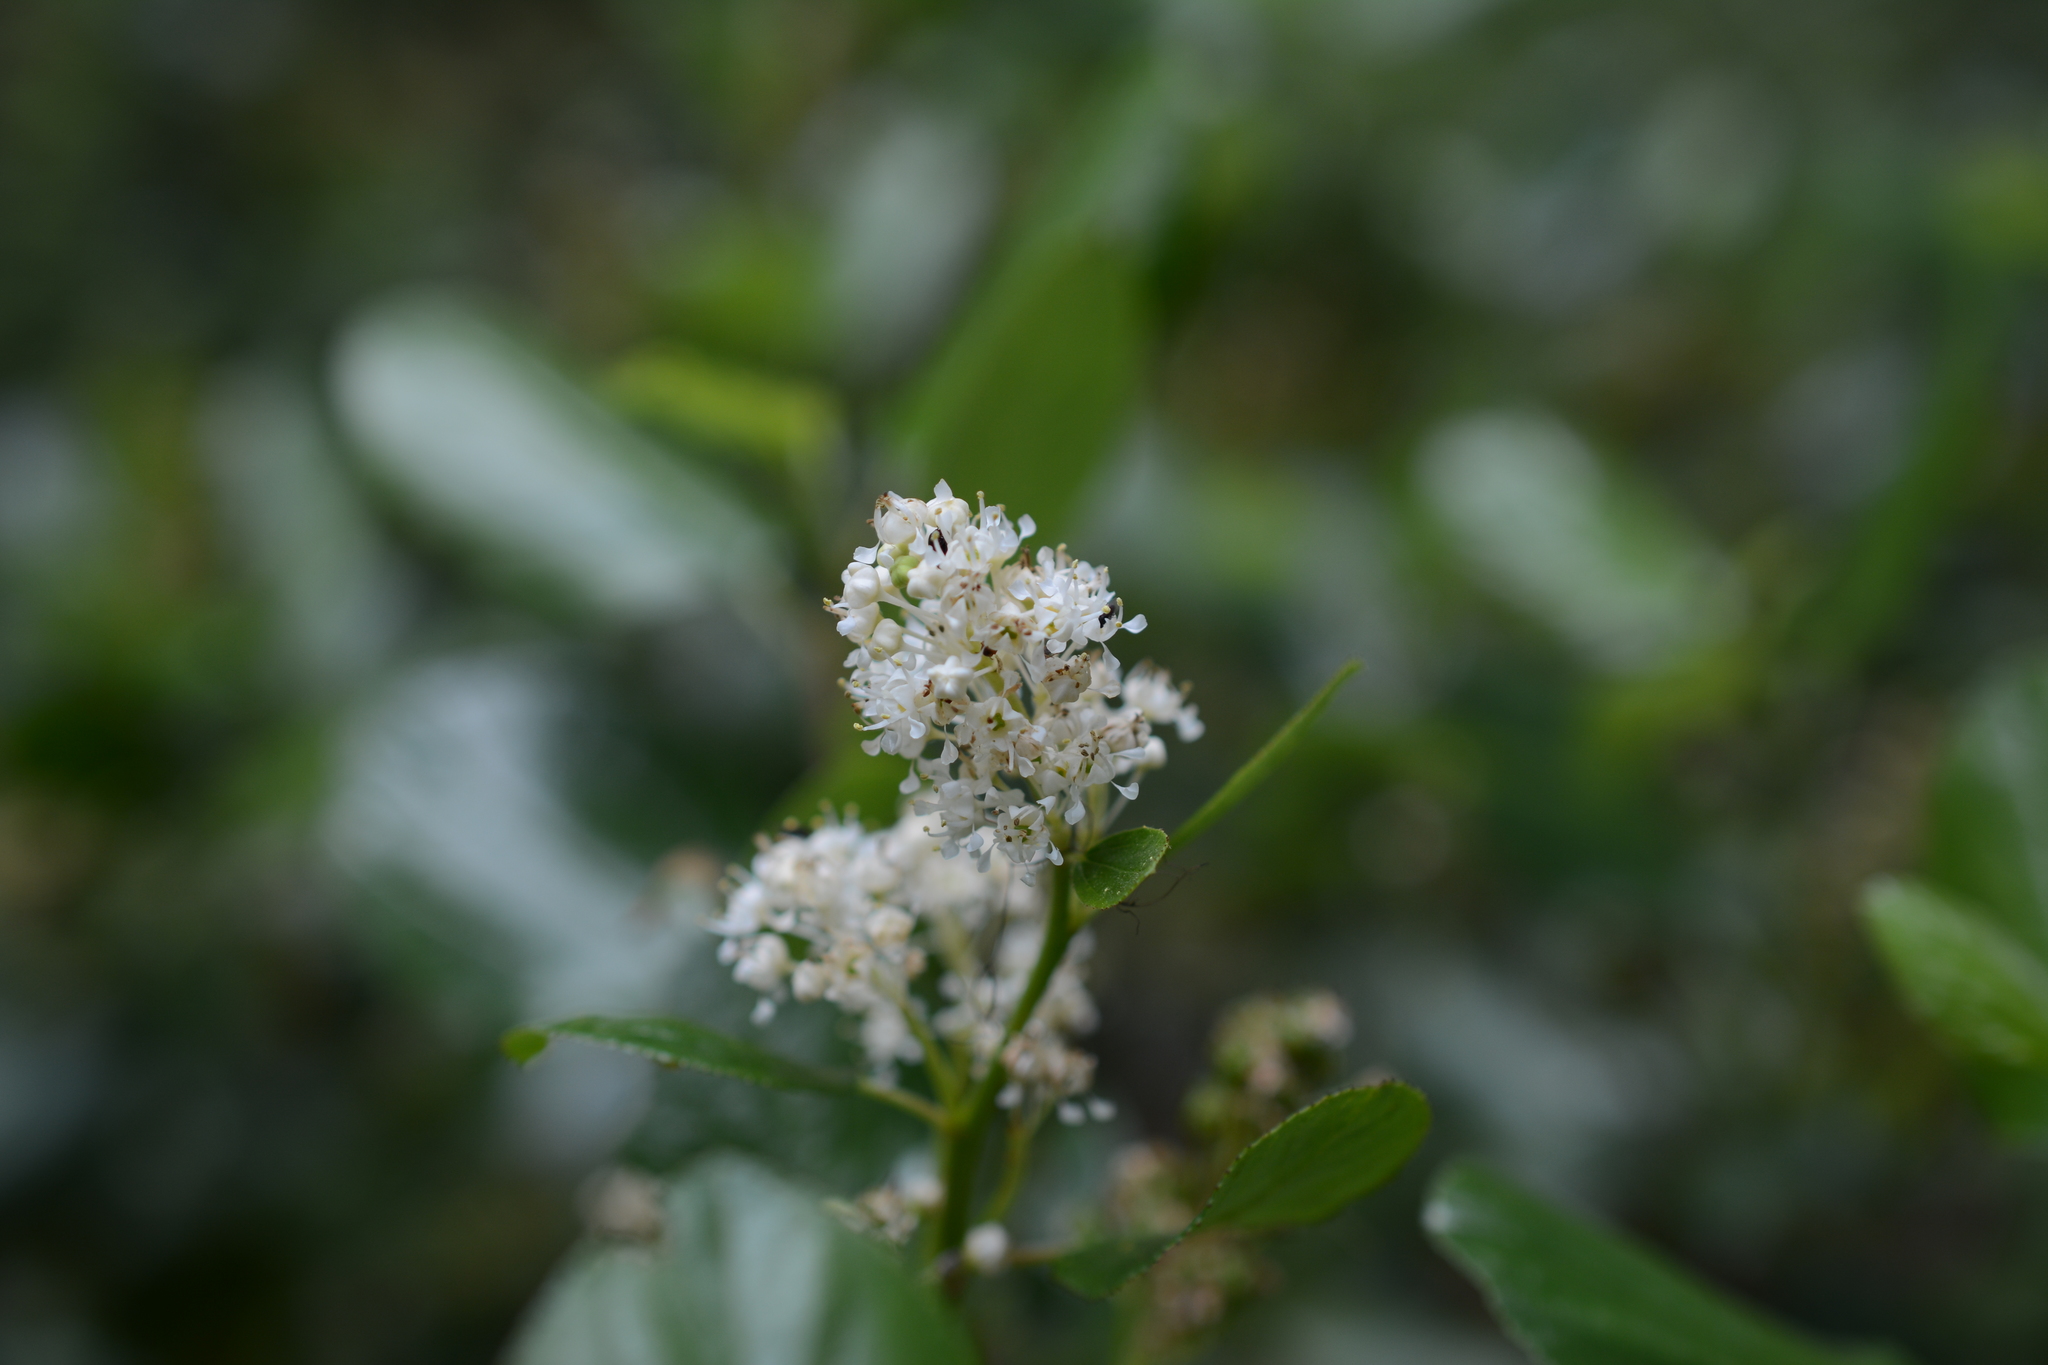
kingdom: Plantae
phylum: Tracheophyta
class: Magnoliopsida
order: Rosales
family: Rhamnaceae
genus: Ceanothus
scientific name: Ceanothus velutinus
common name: Snowbrush
